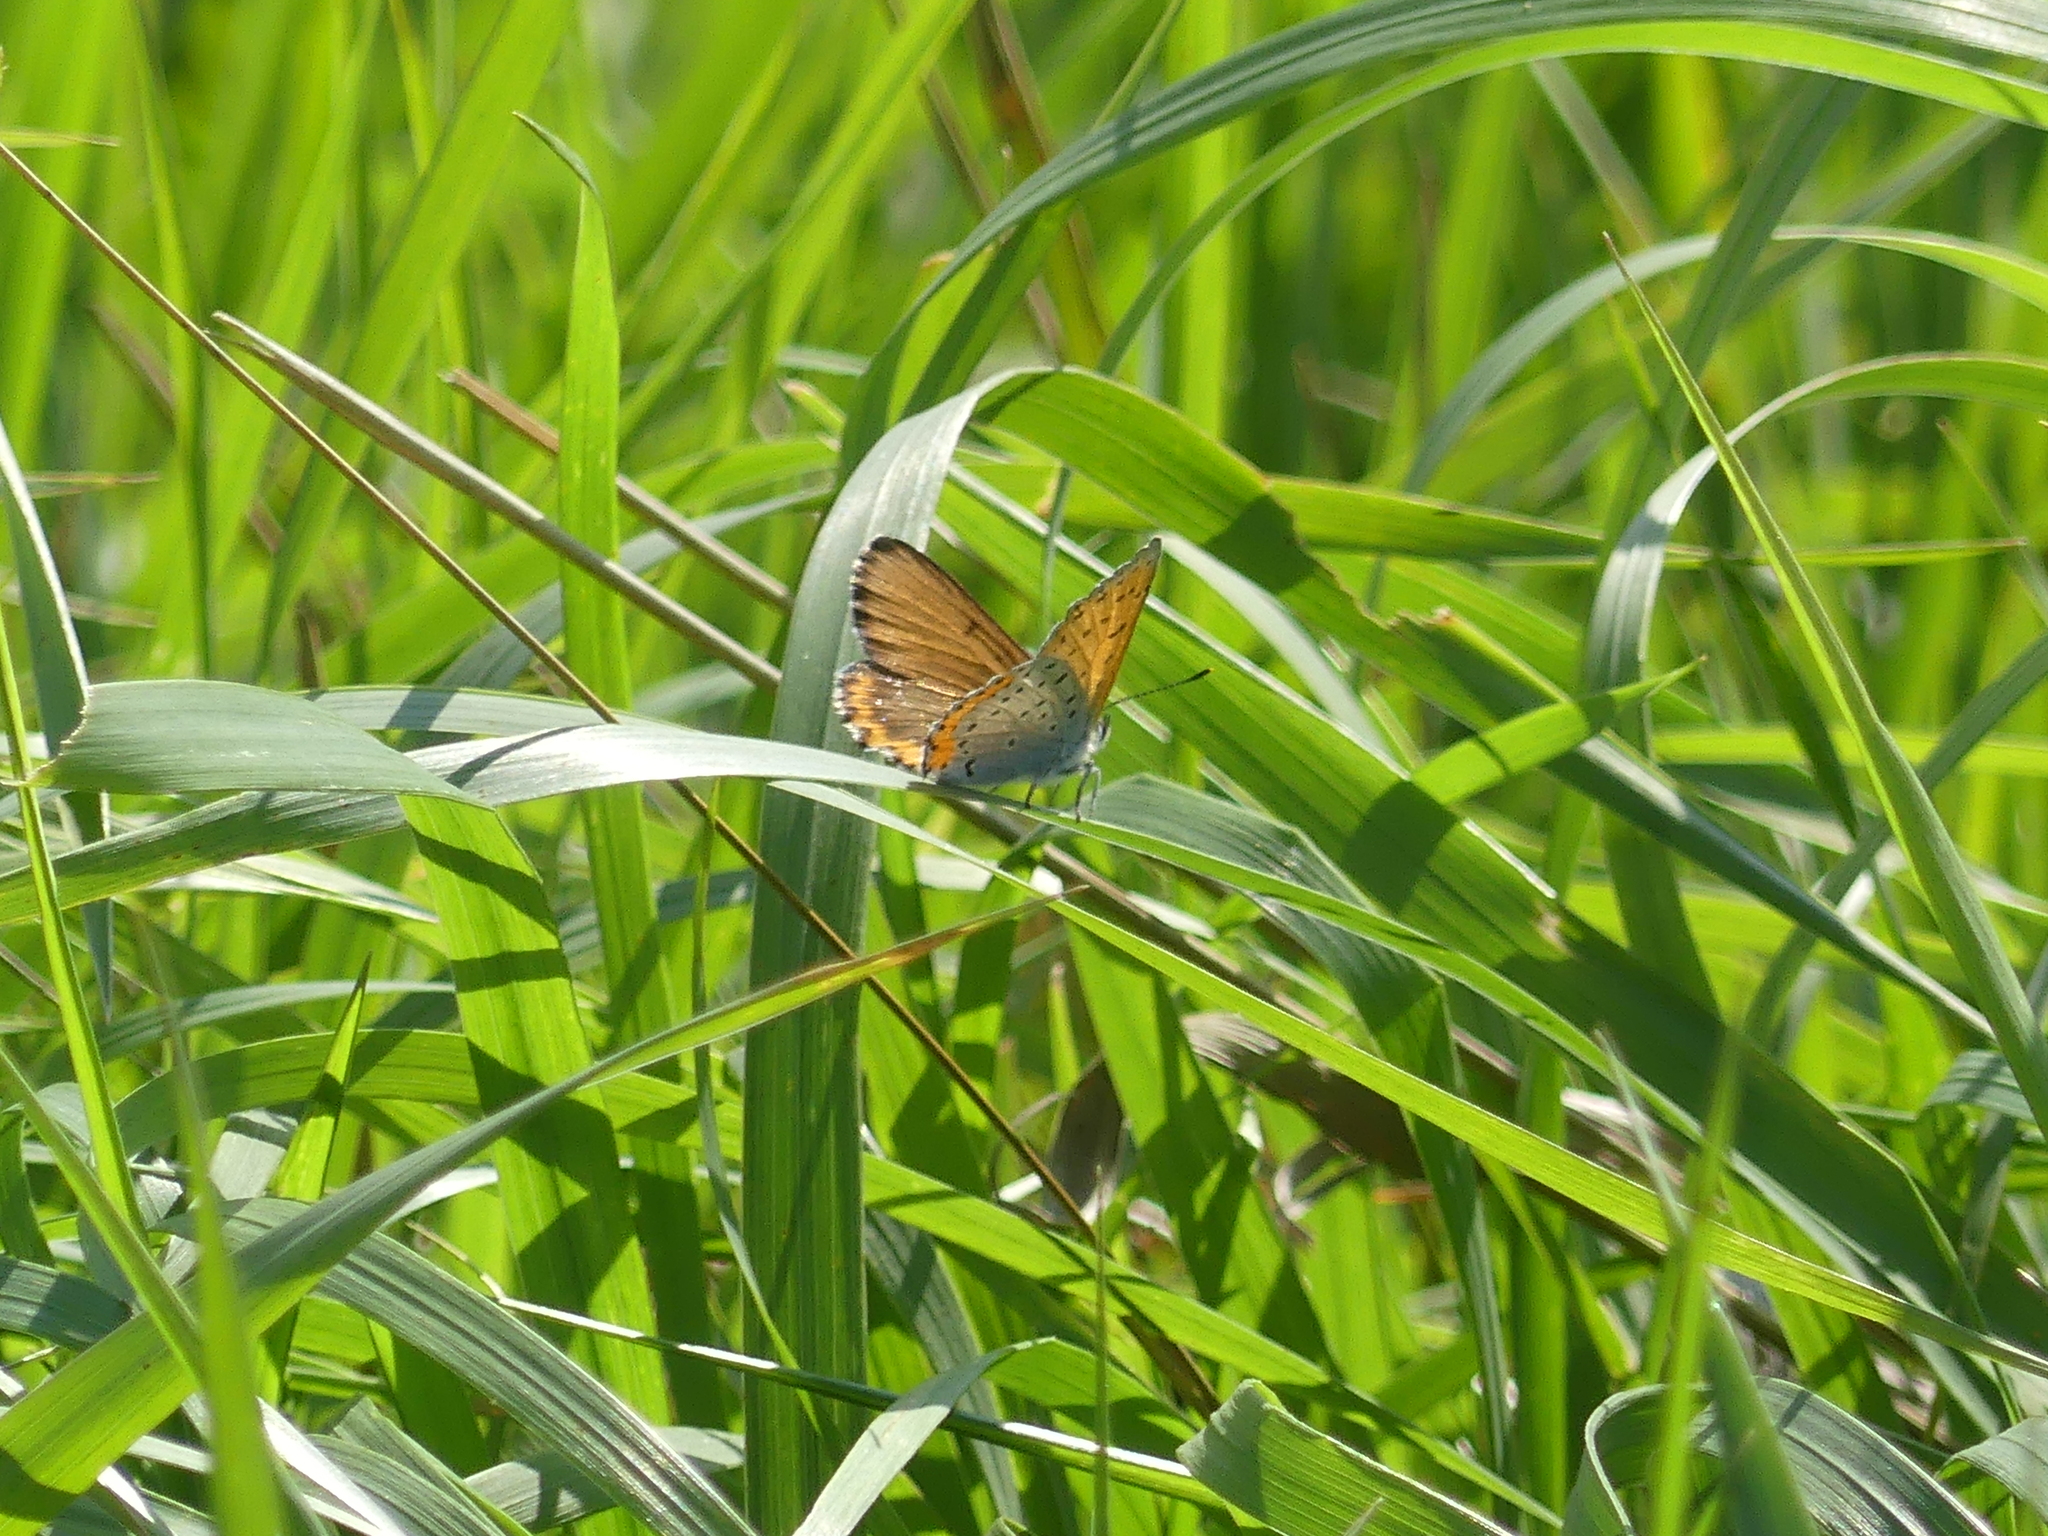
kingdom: Animalia
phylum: Arthropoda
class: Insecta
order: Lepidoptera
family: Lycaenidae
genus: Tharsalea
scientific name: Tharsalea hyllus
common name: Bronze copper
